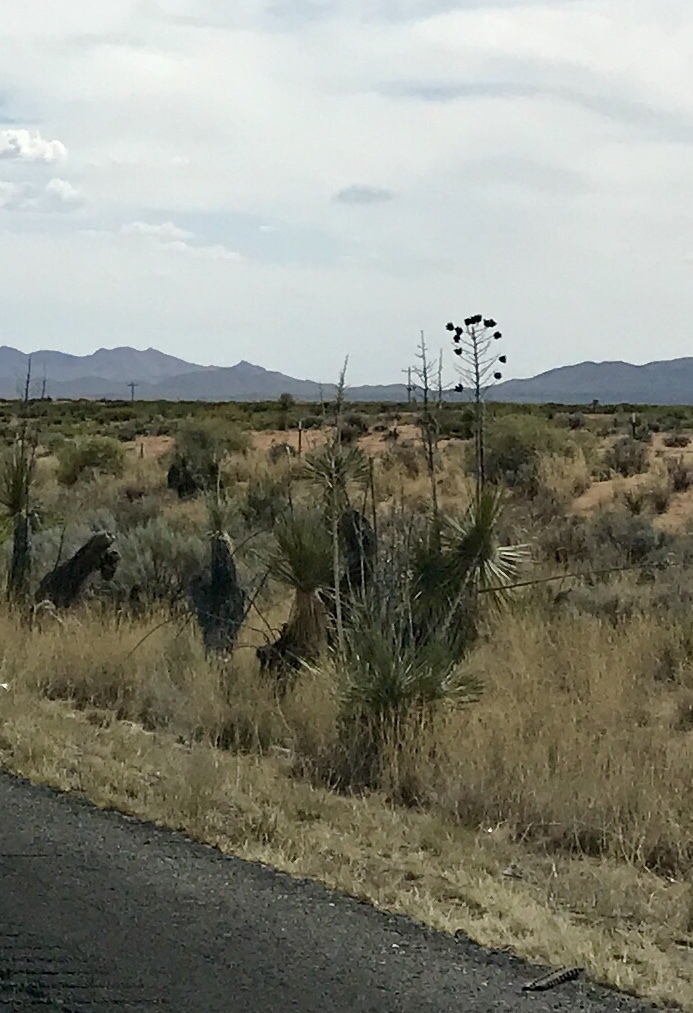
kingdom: Plantae
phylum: Tracheophyta
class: Liliopsida
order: Asparagales
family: Asparagaceae
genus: Yucca
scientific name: Yucca elata
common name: Palmella
